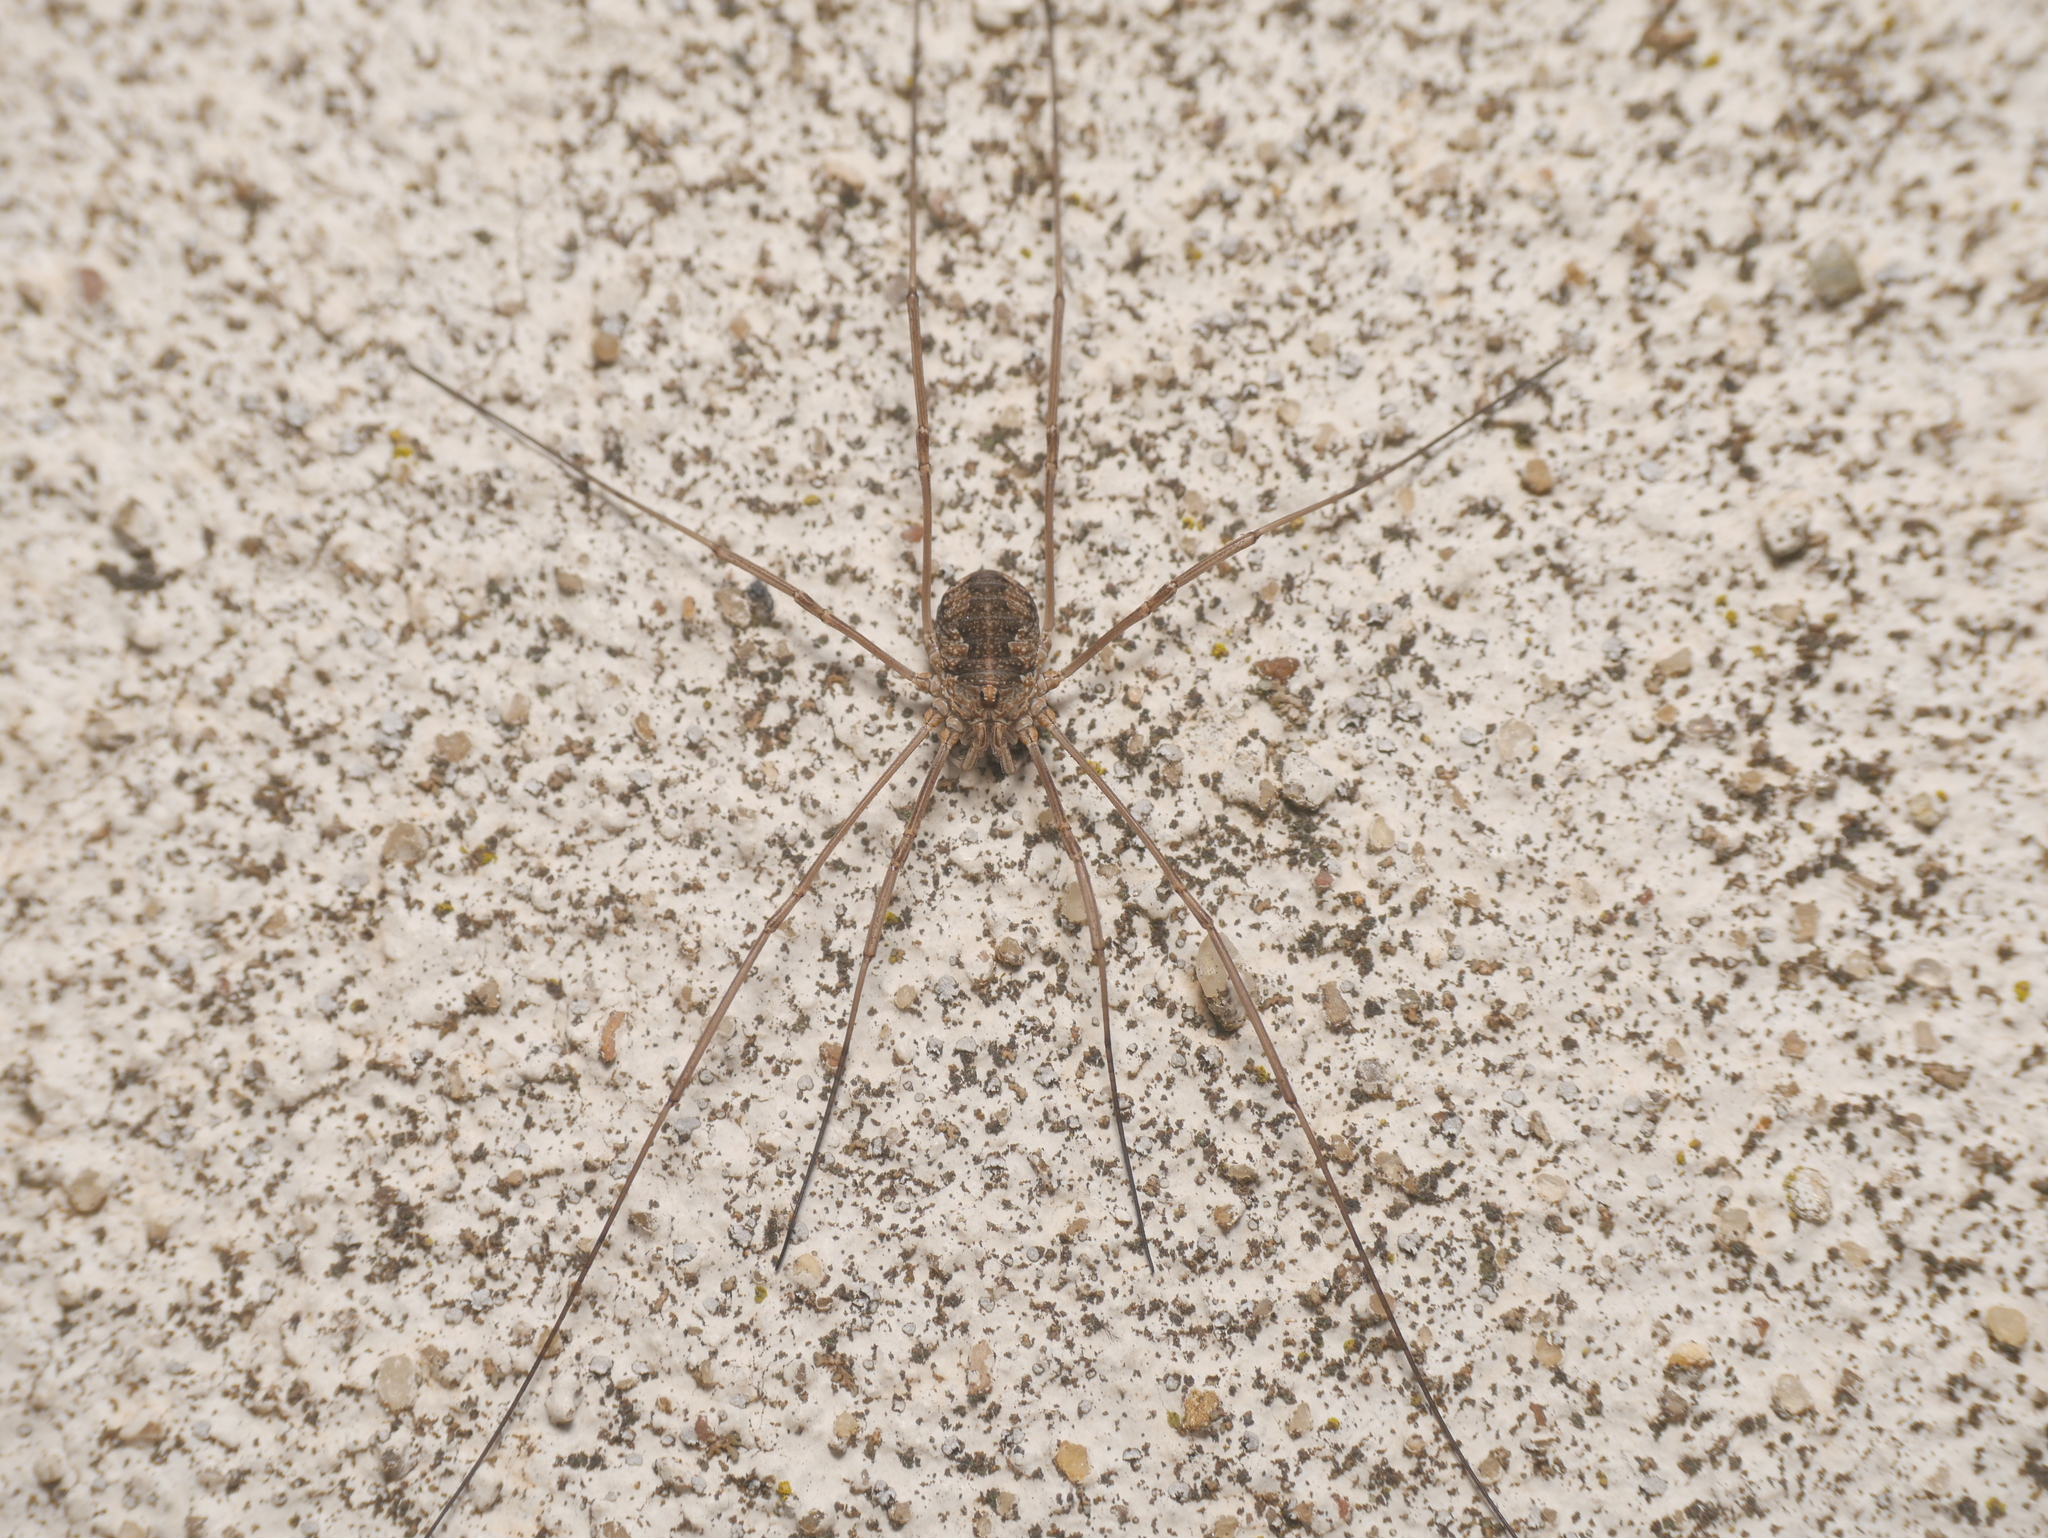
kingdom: Animalia
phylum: Arthropoda
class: Arachnida
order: Opiliones
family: Phalangiidae
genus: Phalangium
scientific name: Phalangium opilio
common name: Daddy longleg
